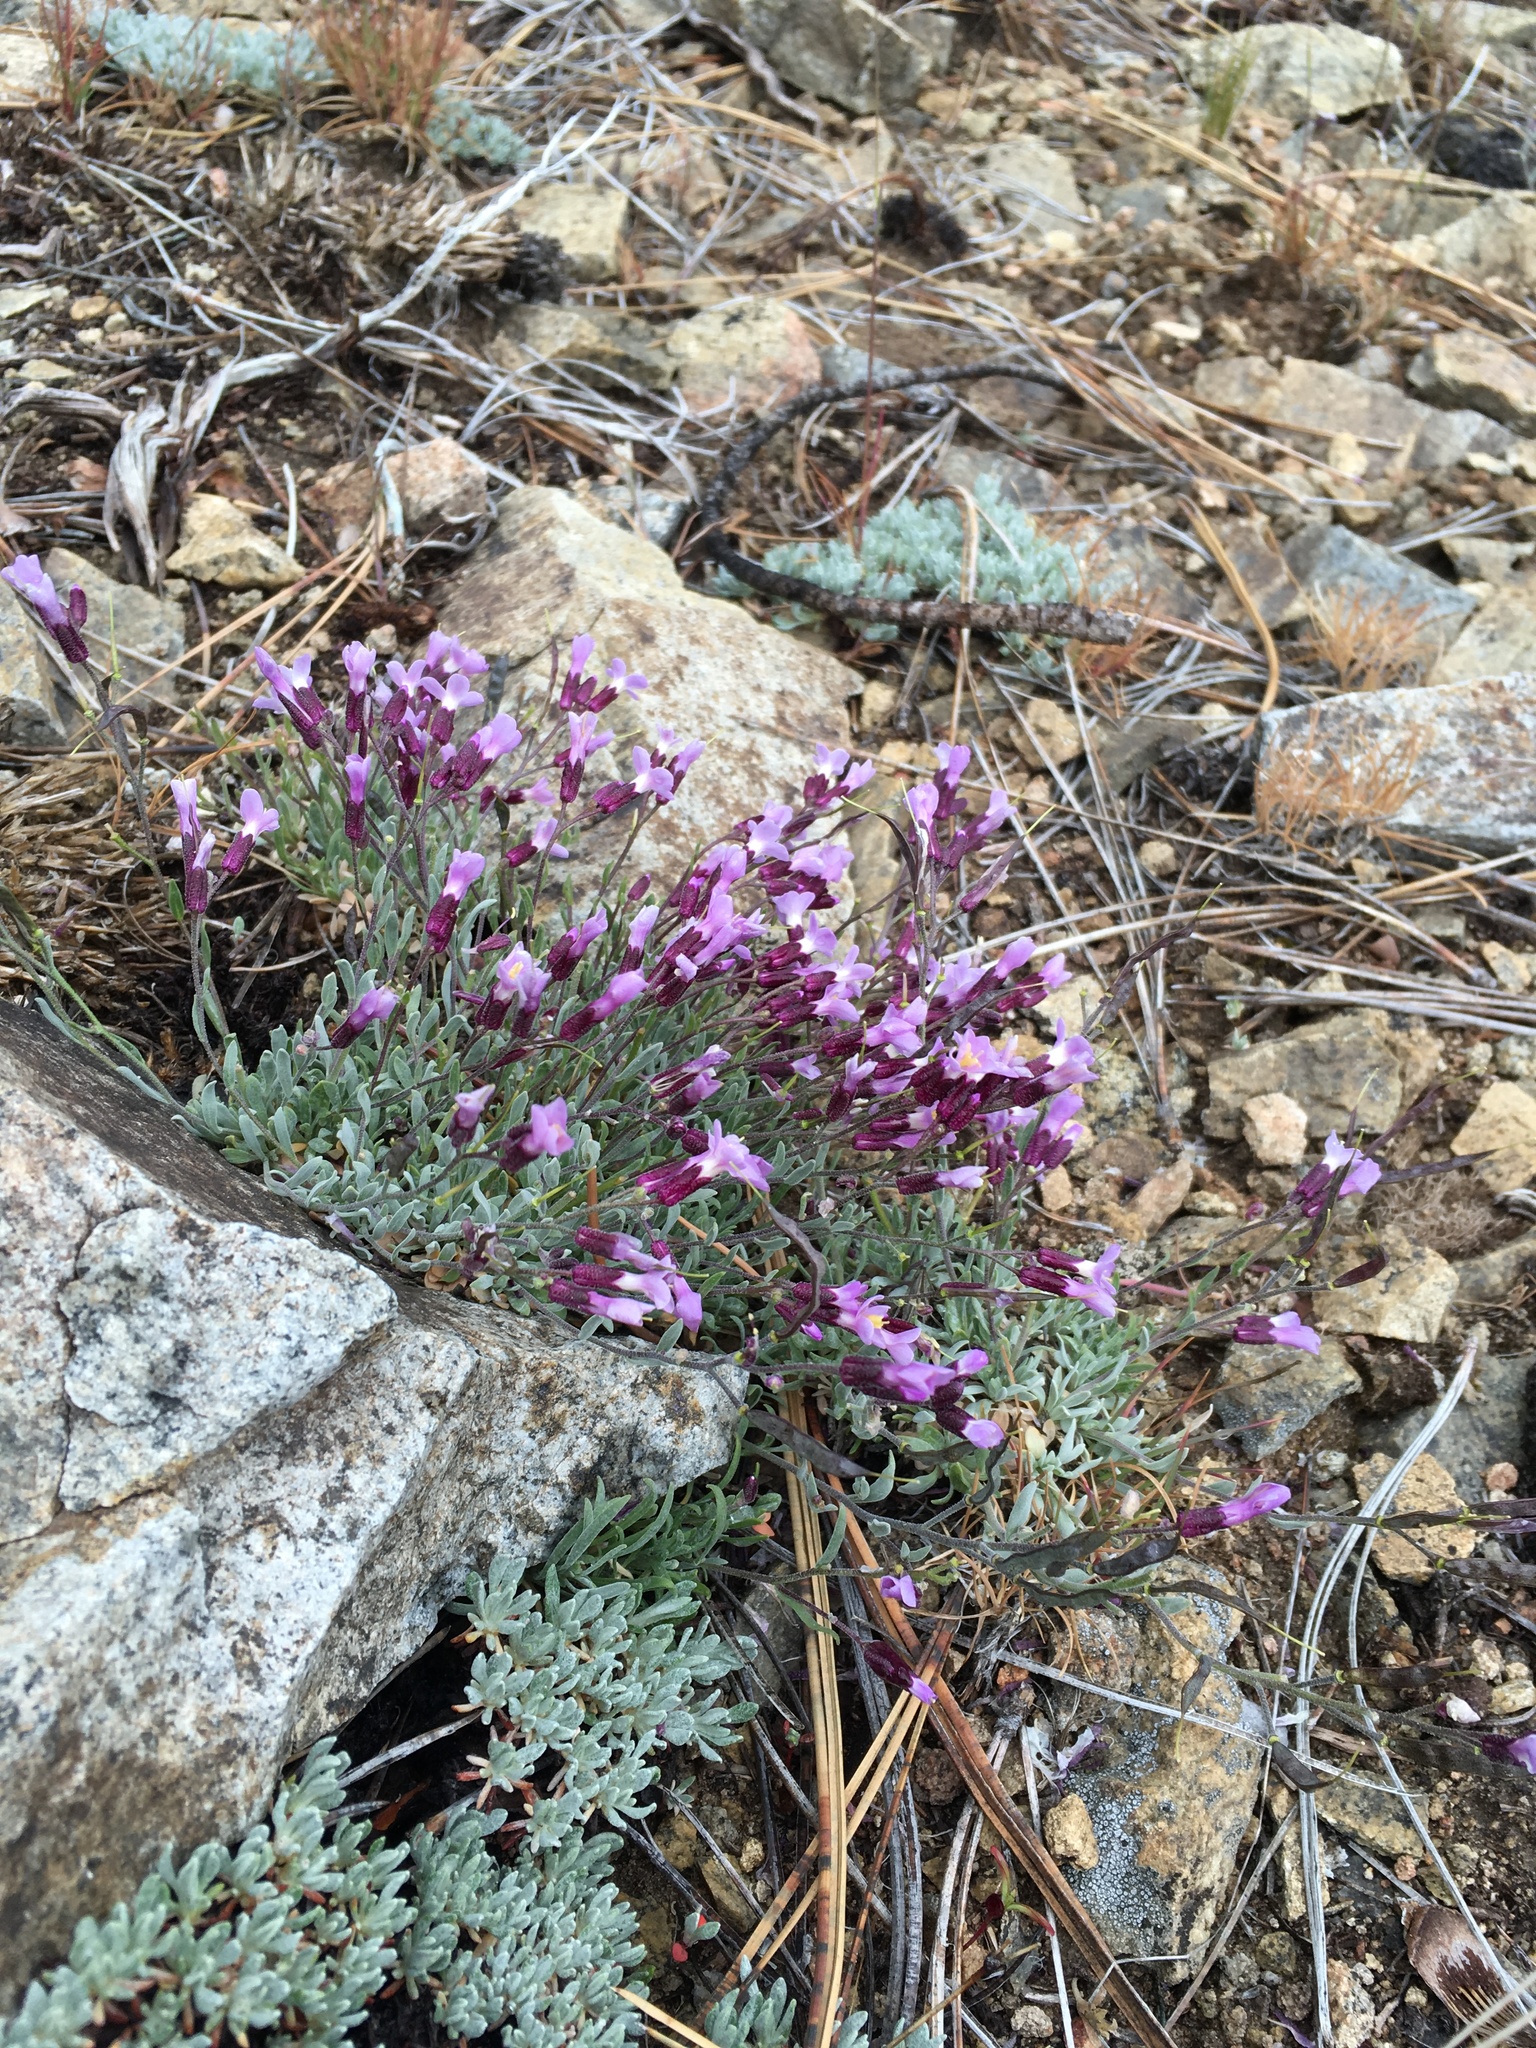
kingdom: Plantae
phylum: Tracheophyta
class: Magnoliopsida
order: Brassicales
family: Brassicaceae
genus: Boechera
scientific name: Boechera parishii
